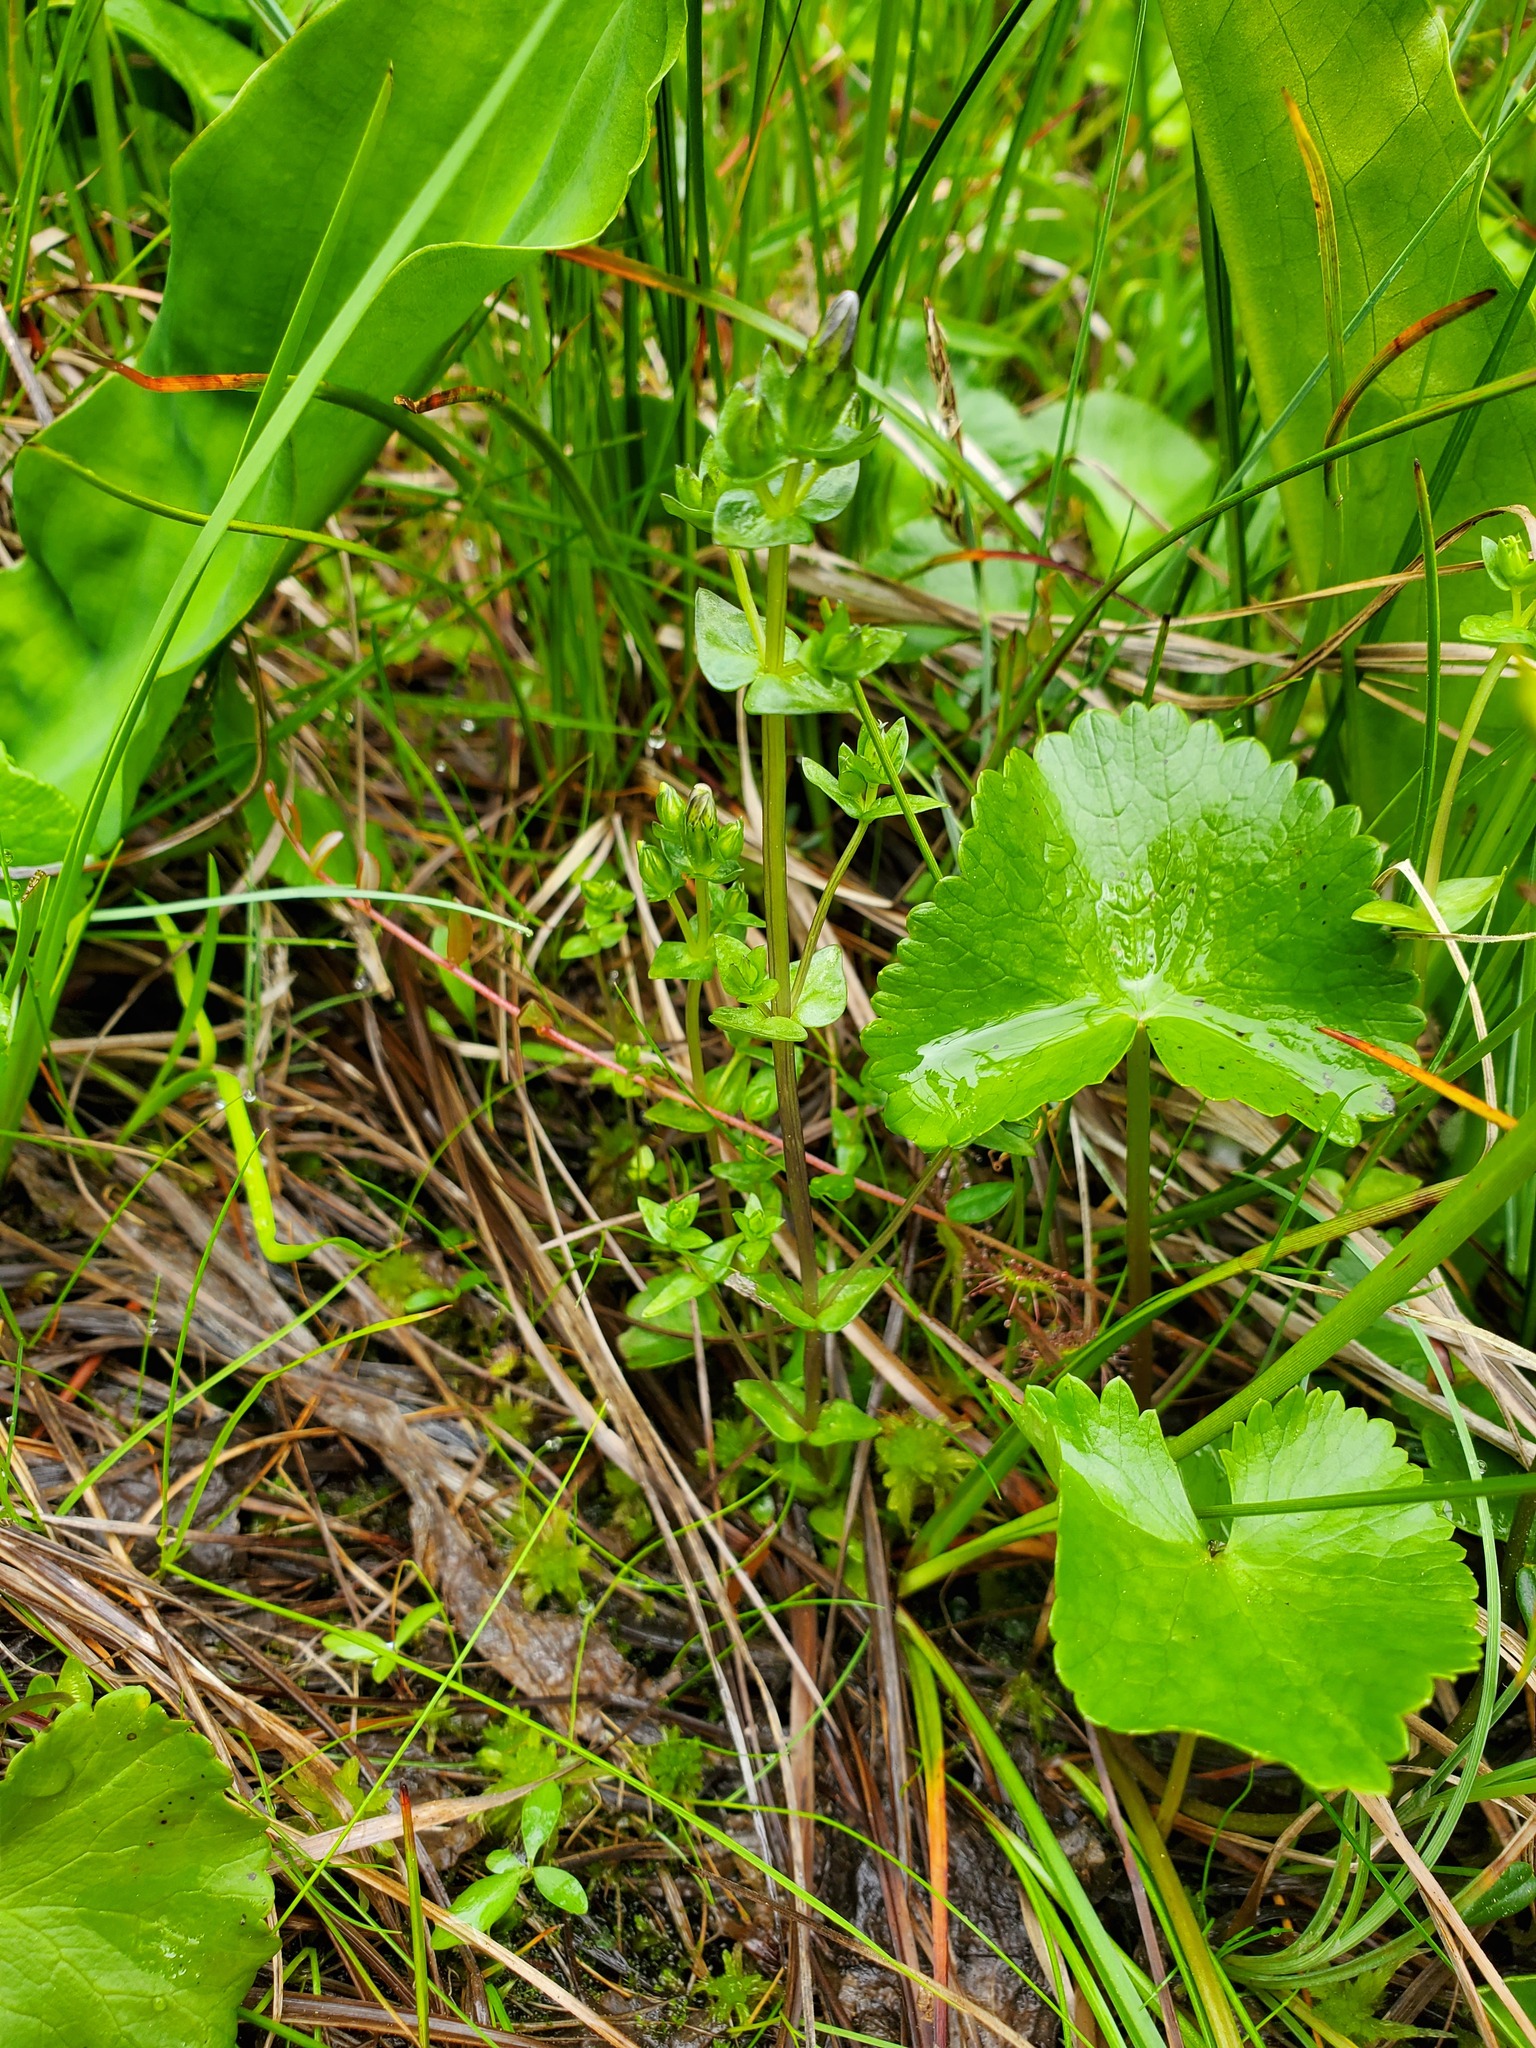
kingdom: Plantae
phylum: Tracheophyta
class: Magnoliopsida
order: Gentianales
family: Gentianaceae
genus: Gentiana
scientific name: Gentiana douglasiana
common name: Swamp gentian
